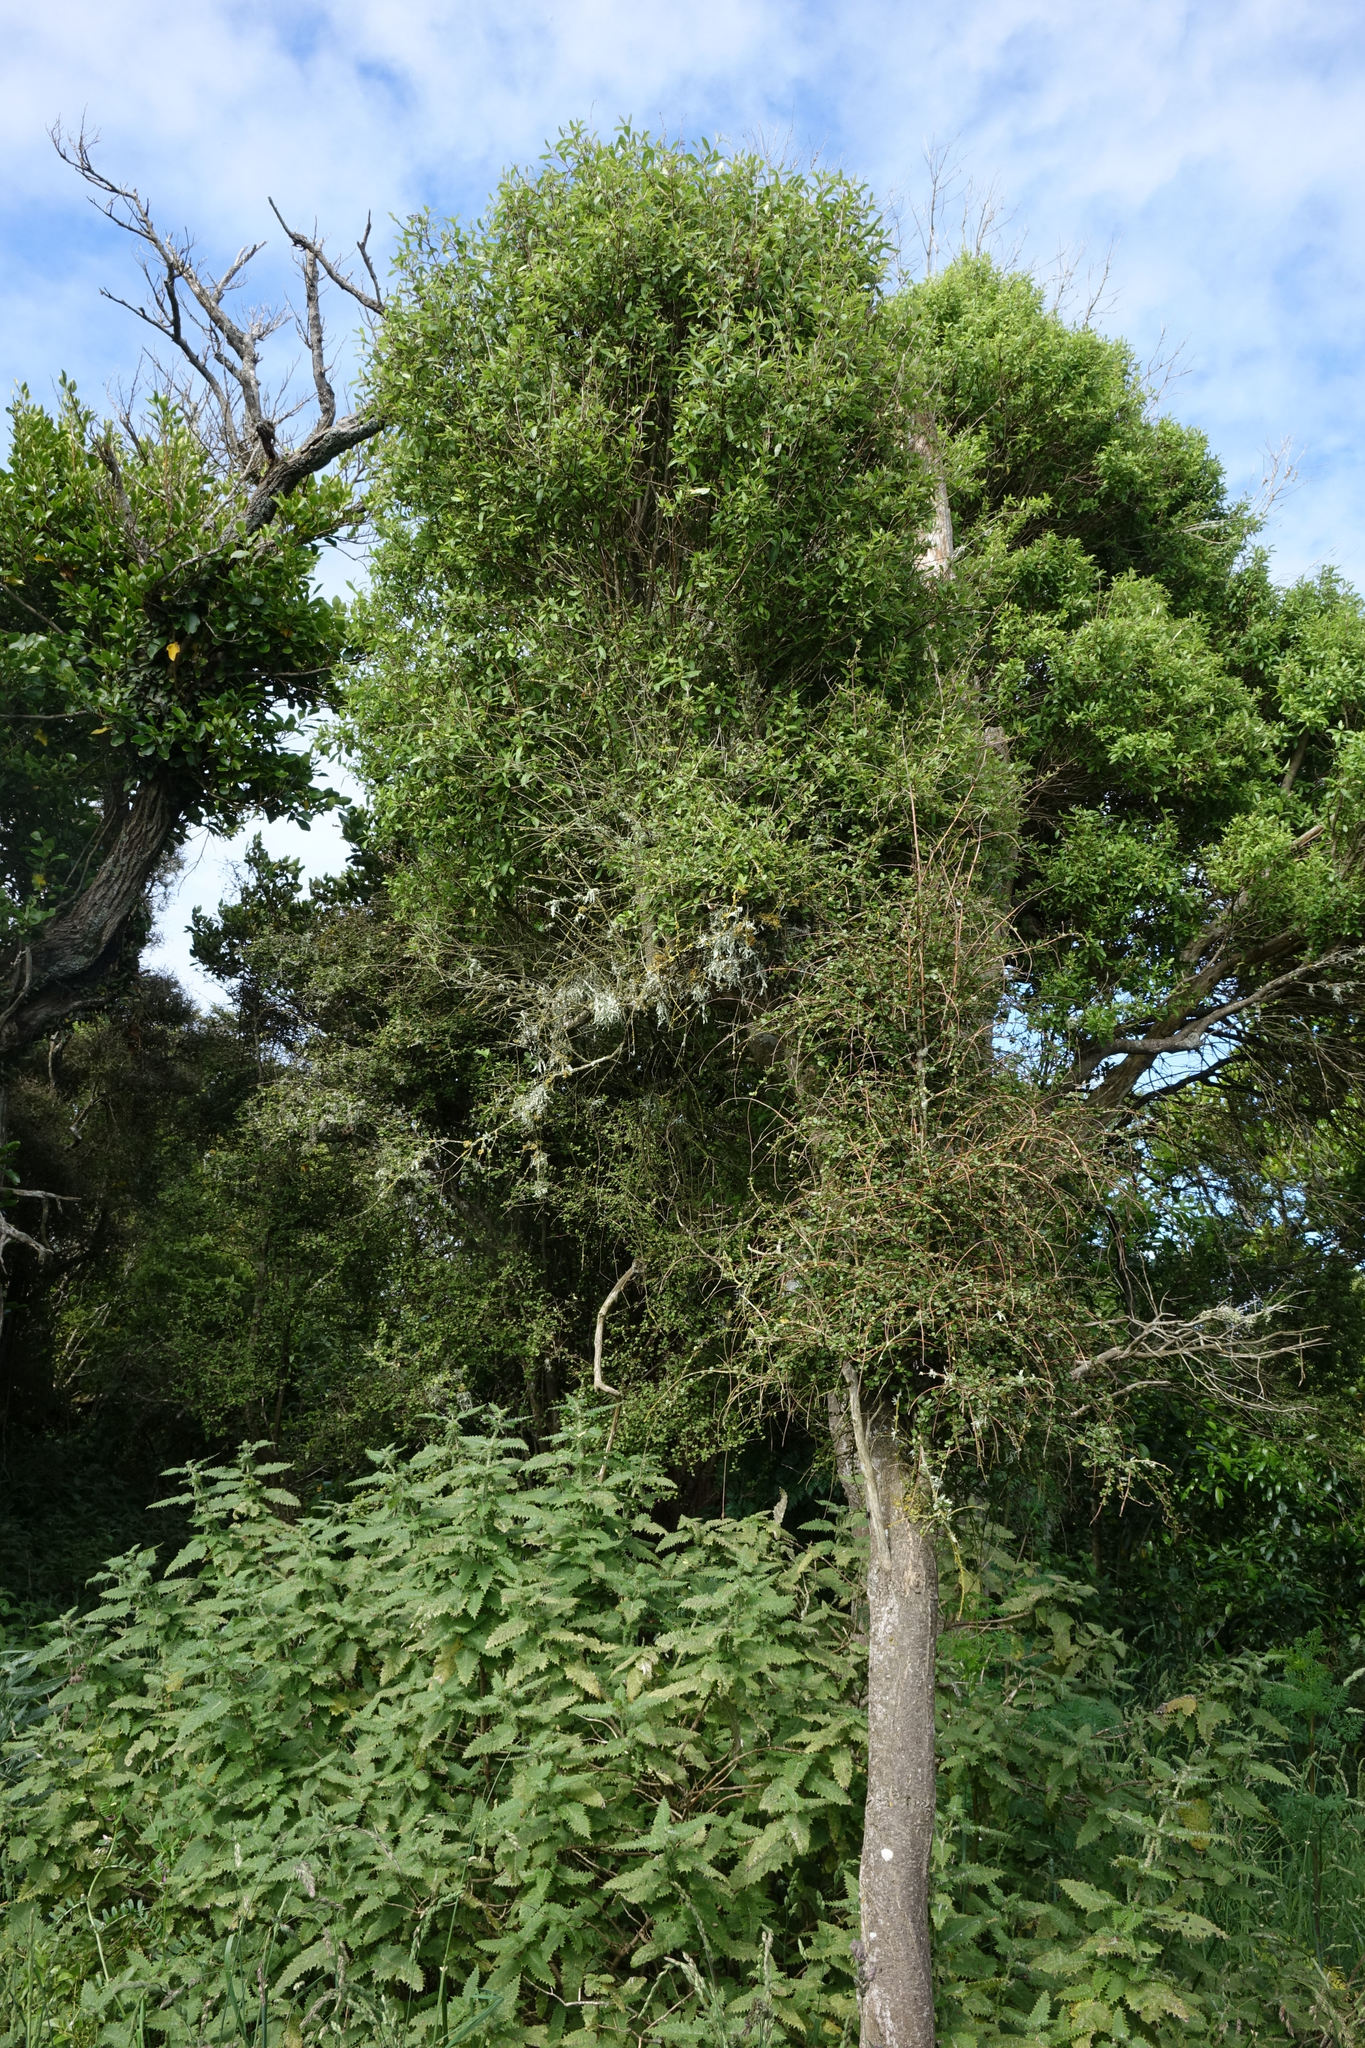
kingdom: Plantae
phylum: Tracheophyta
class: Magnoliopsida
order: Malvales
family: Malvaceae
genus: Hoheria
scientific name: Hoheria angustifolia
